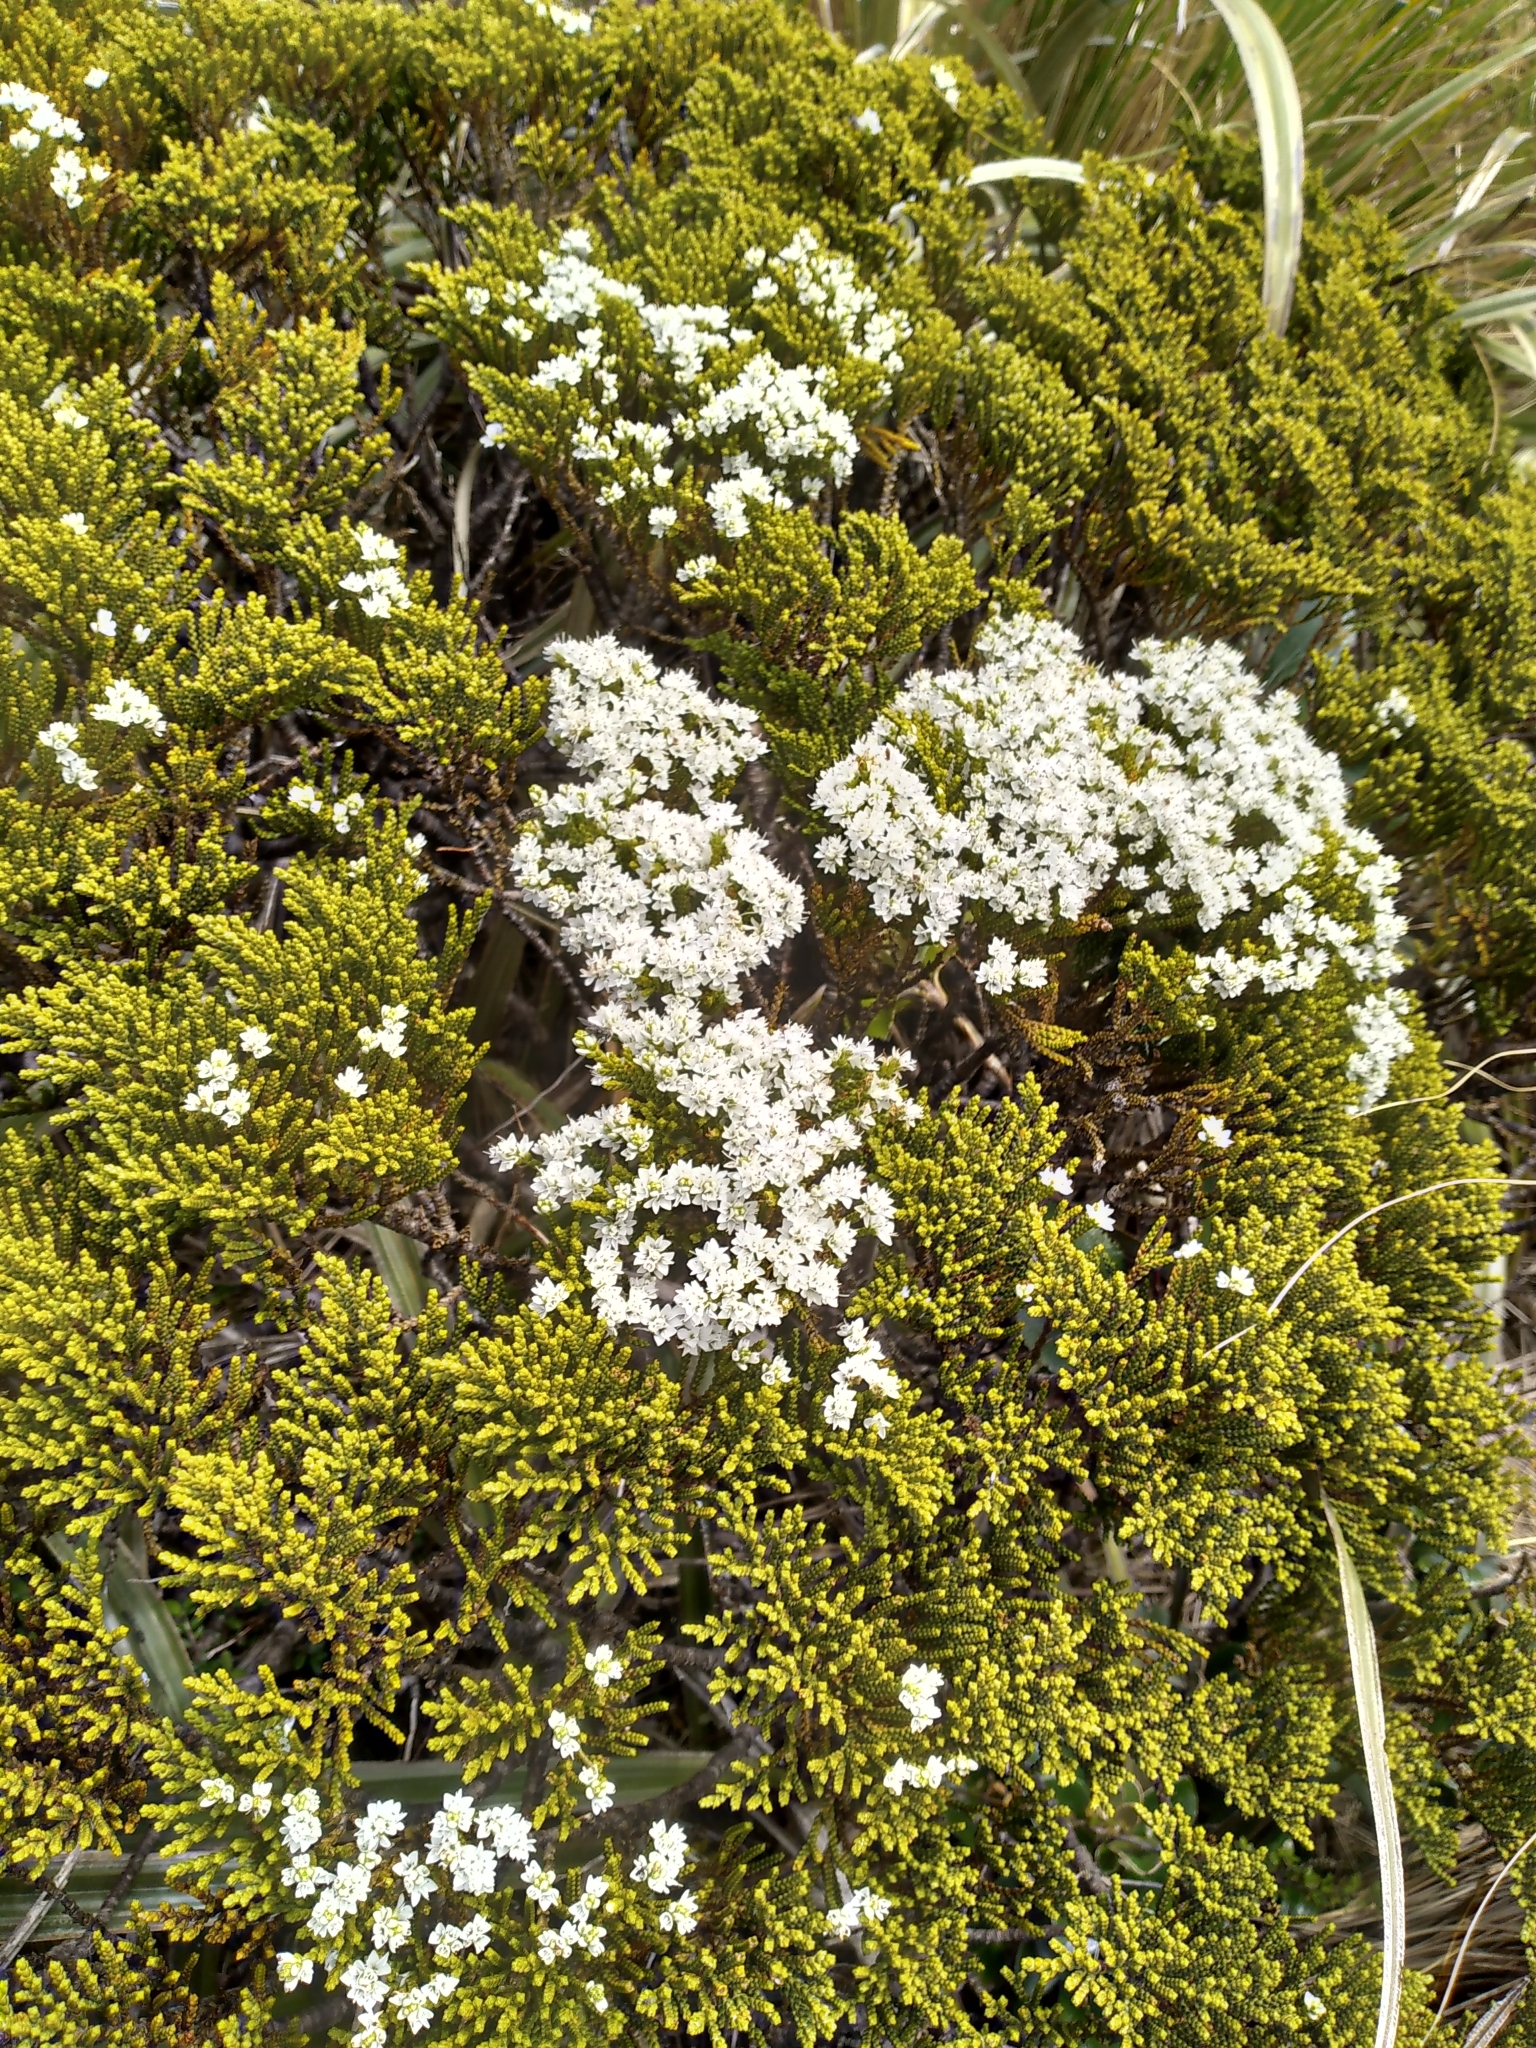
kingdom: Plantae
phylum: Tracheophyta
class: Magnoliopsida
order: Lamiales
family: Plantaginaceae
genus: Veronica
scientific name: Veronica tetragona
